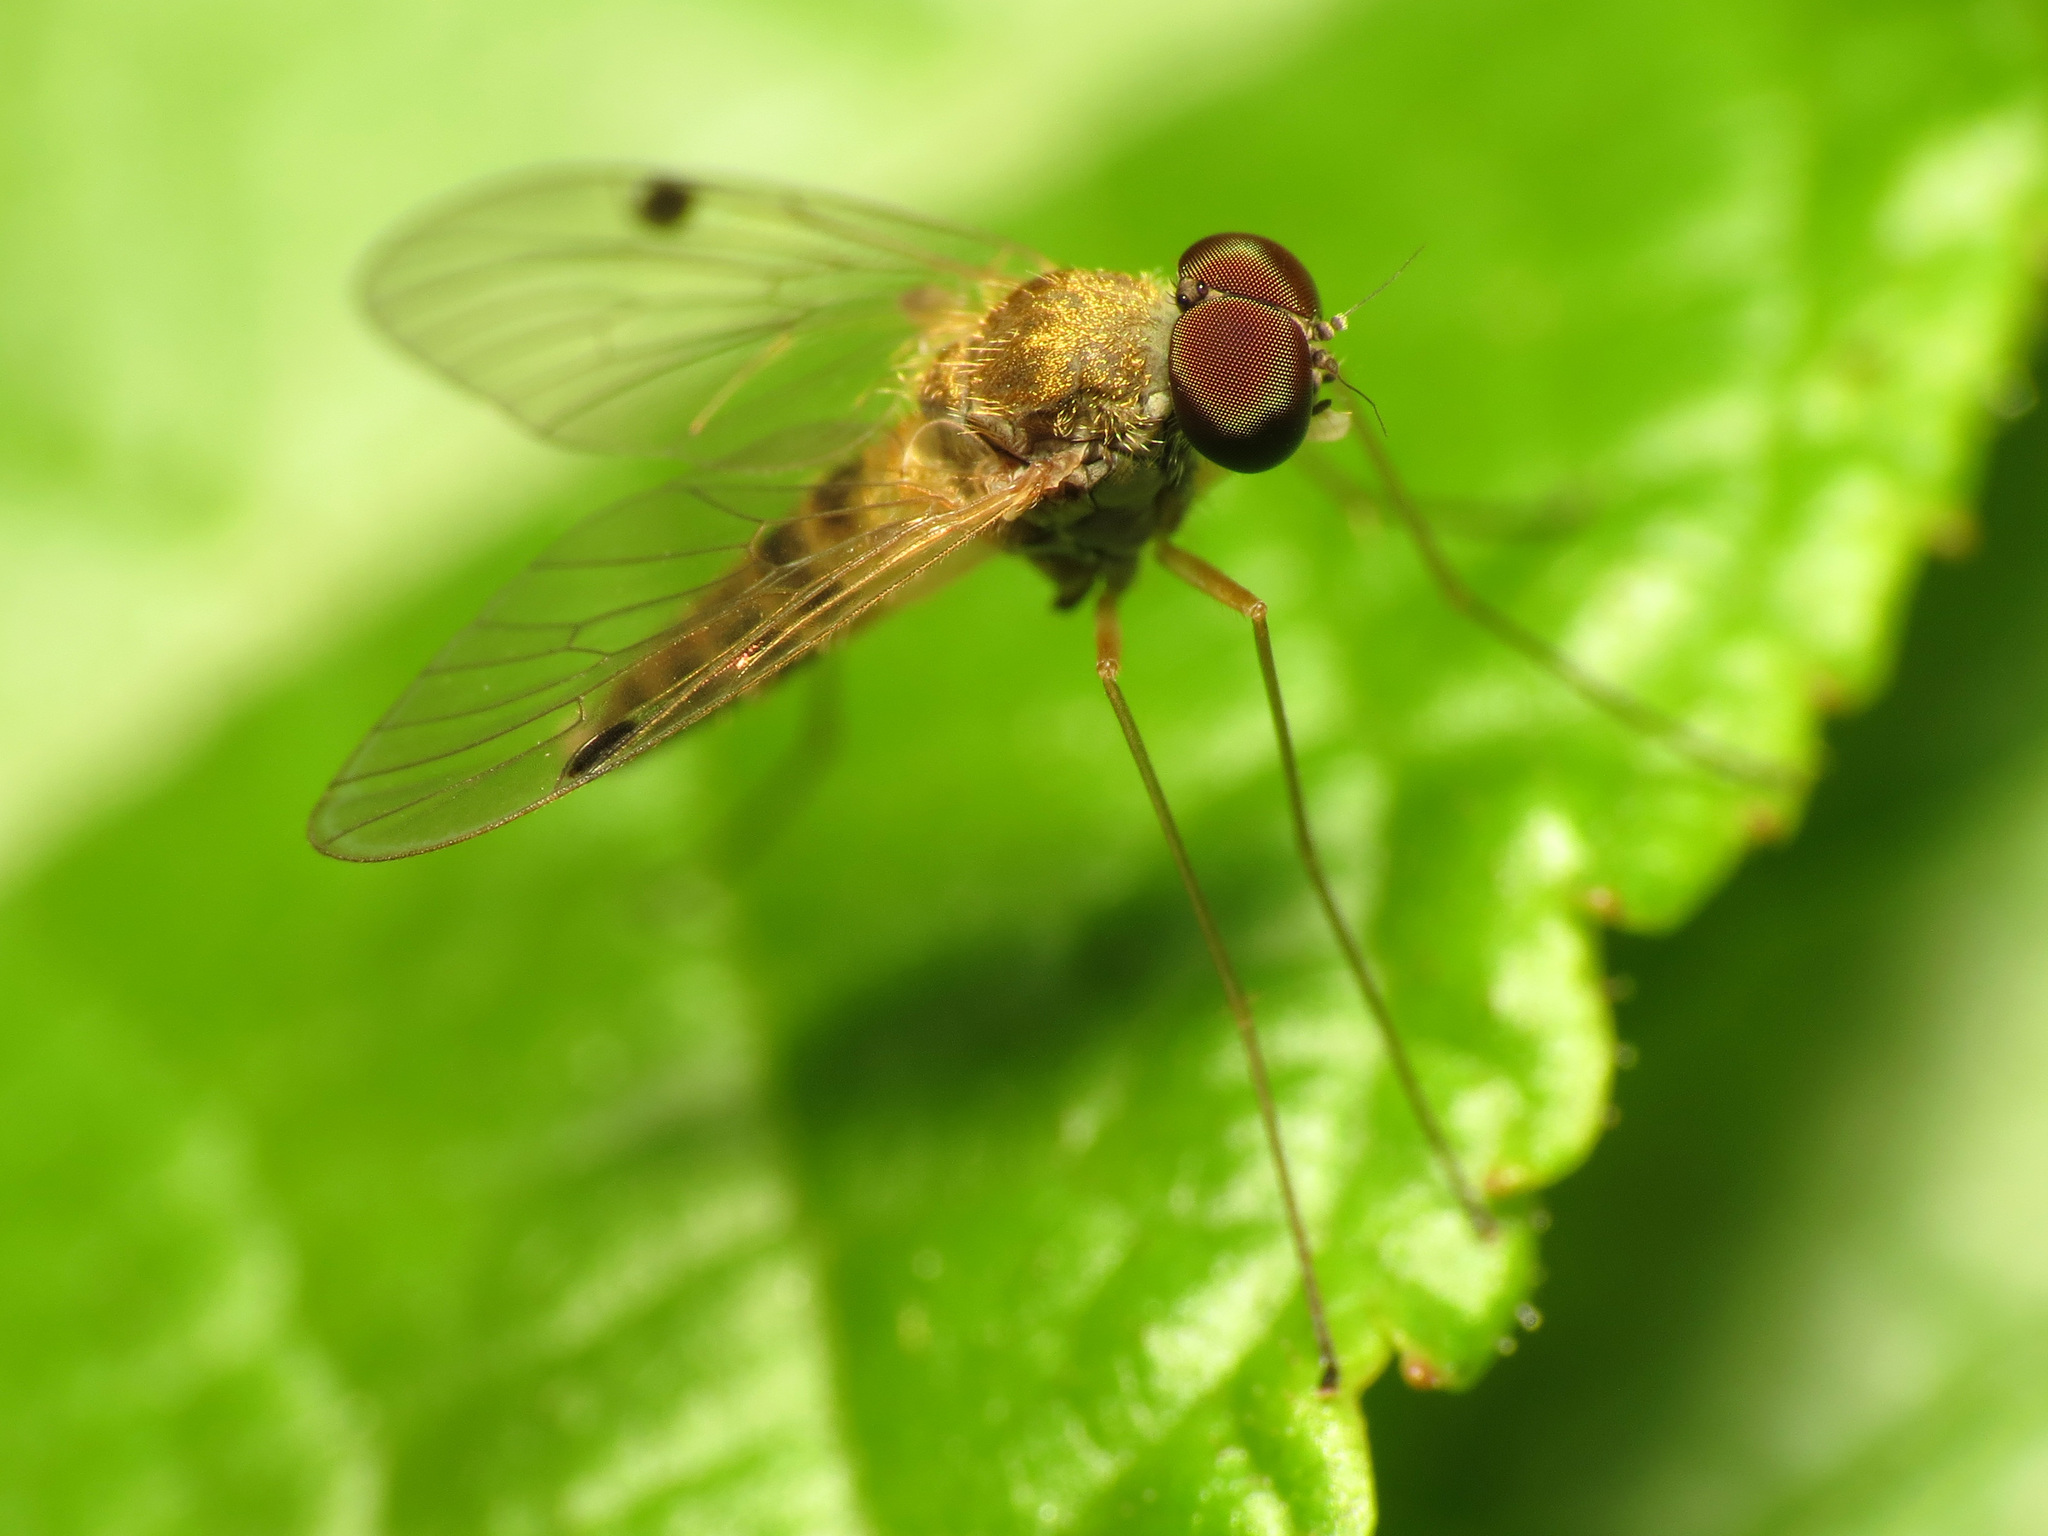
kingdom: Animalia
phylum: Arthropoda
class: Insecta
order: Diptera
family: Rhagionidae
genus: Chrysopilus
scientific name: Chrysopilus modestus
